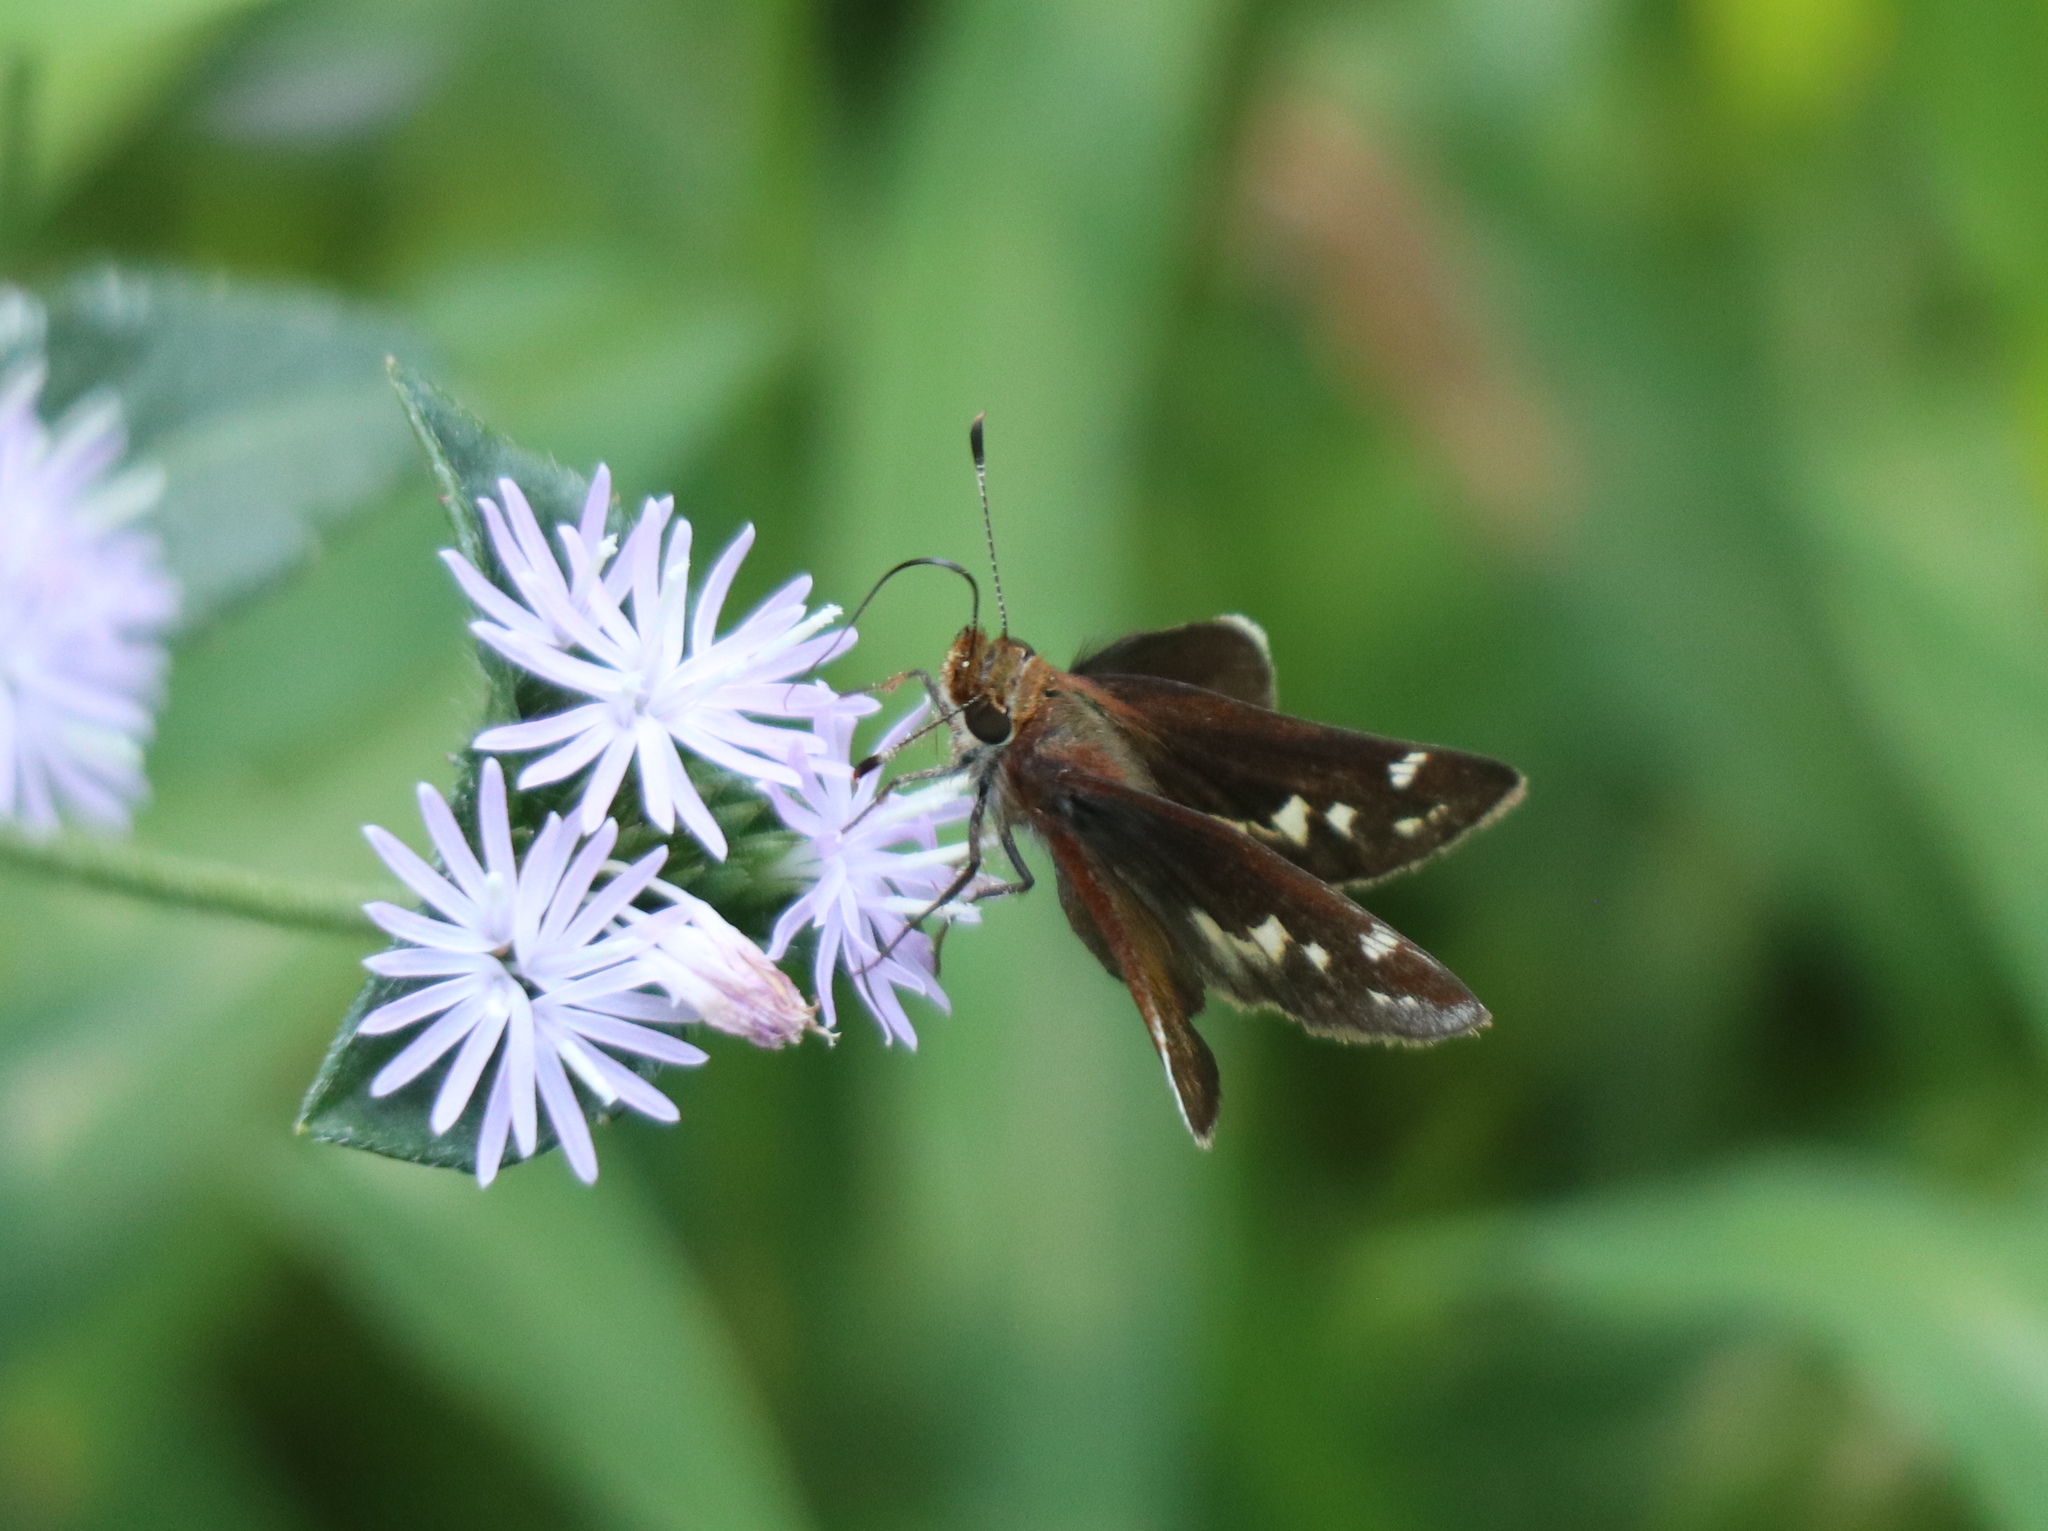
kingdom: Animalia
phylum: Arthropoda
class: Insecta
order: Lepidoptera
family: Hesperiidae
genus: Lon
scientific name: Lon zabulon
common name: Zabulon skipper
